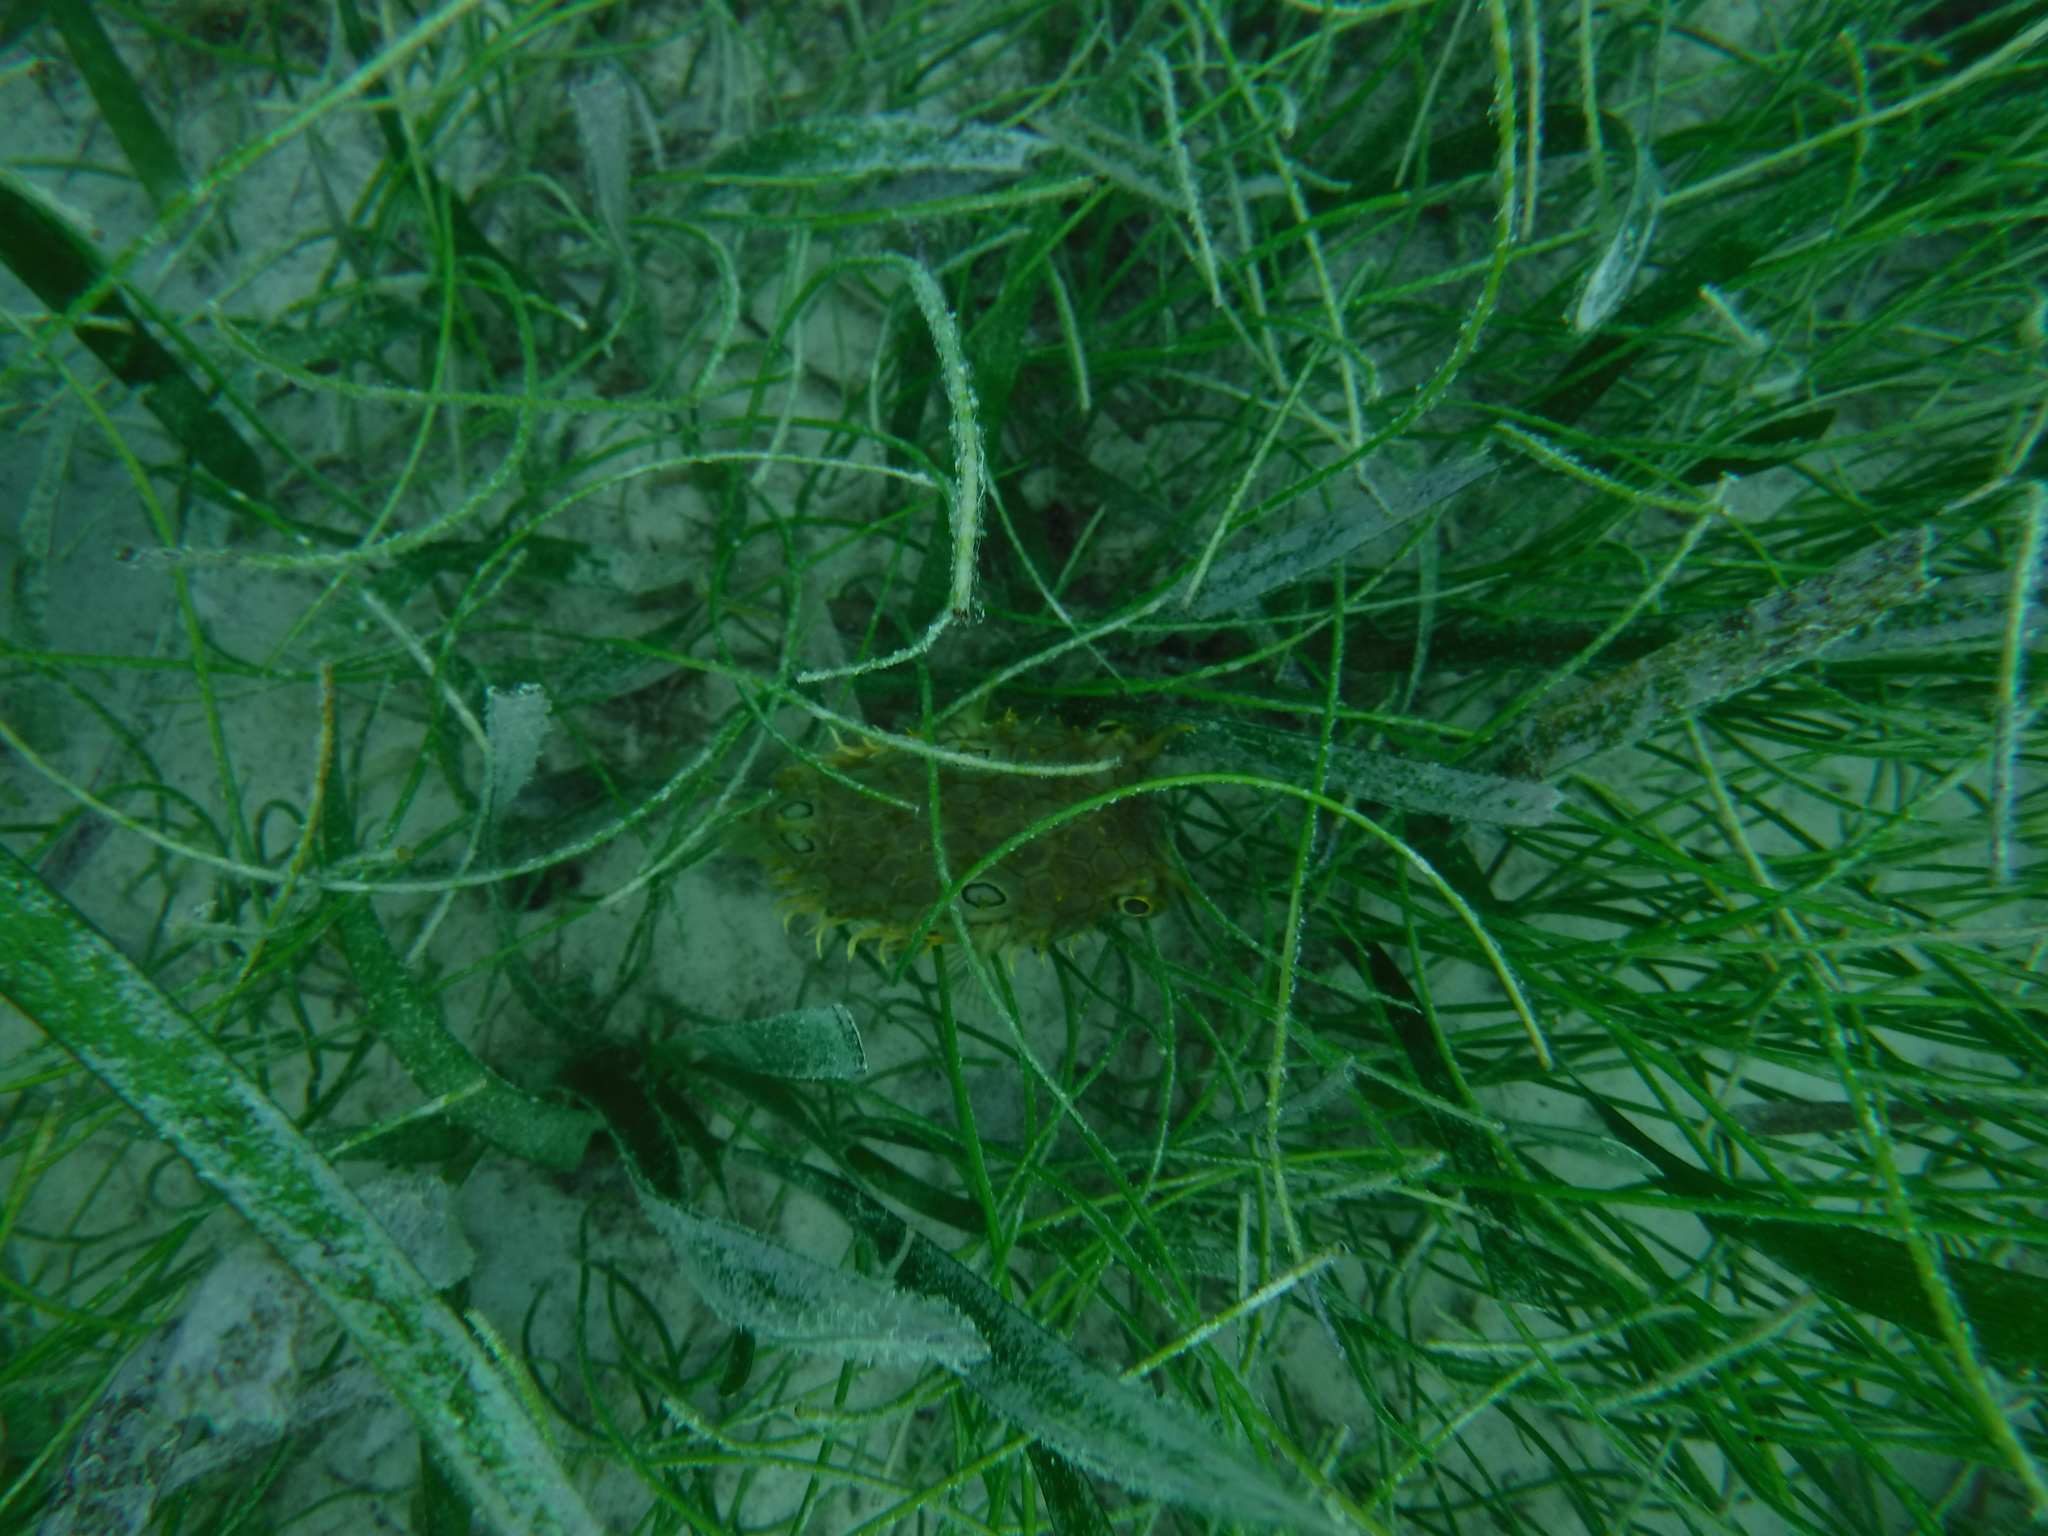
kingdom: Animalia
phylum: Chordata
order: Tetraodontiformes
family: Diodontidae
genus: Chilomycterus
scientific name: Chilomycterus antillarum
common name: Web burrfish
